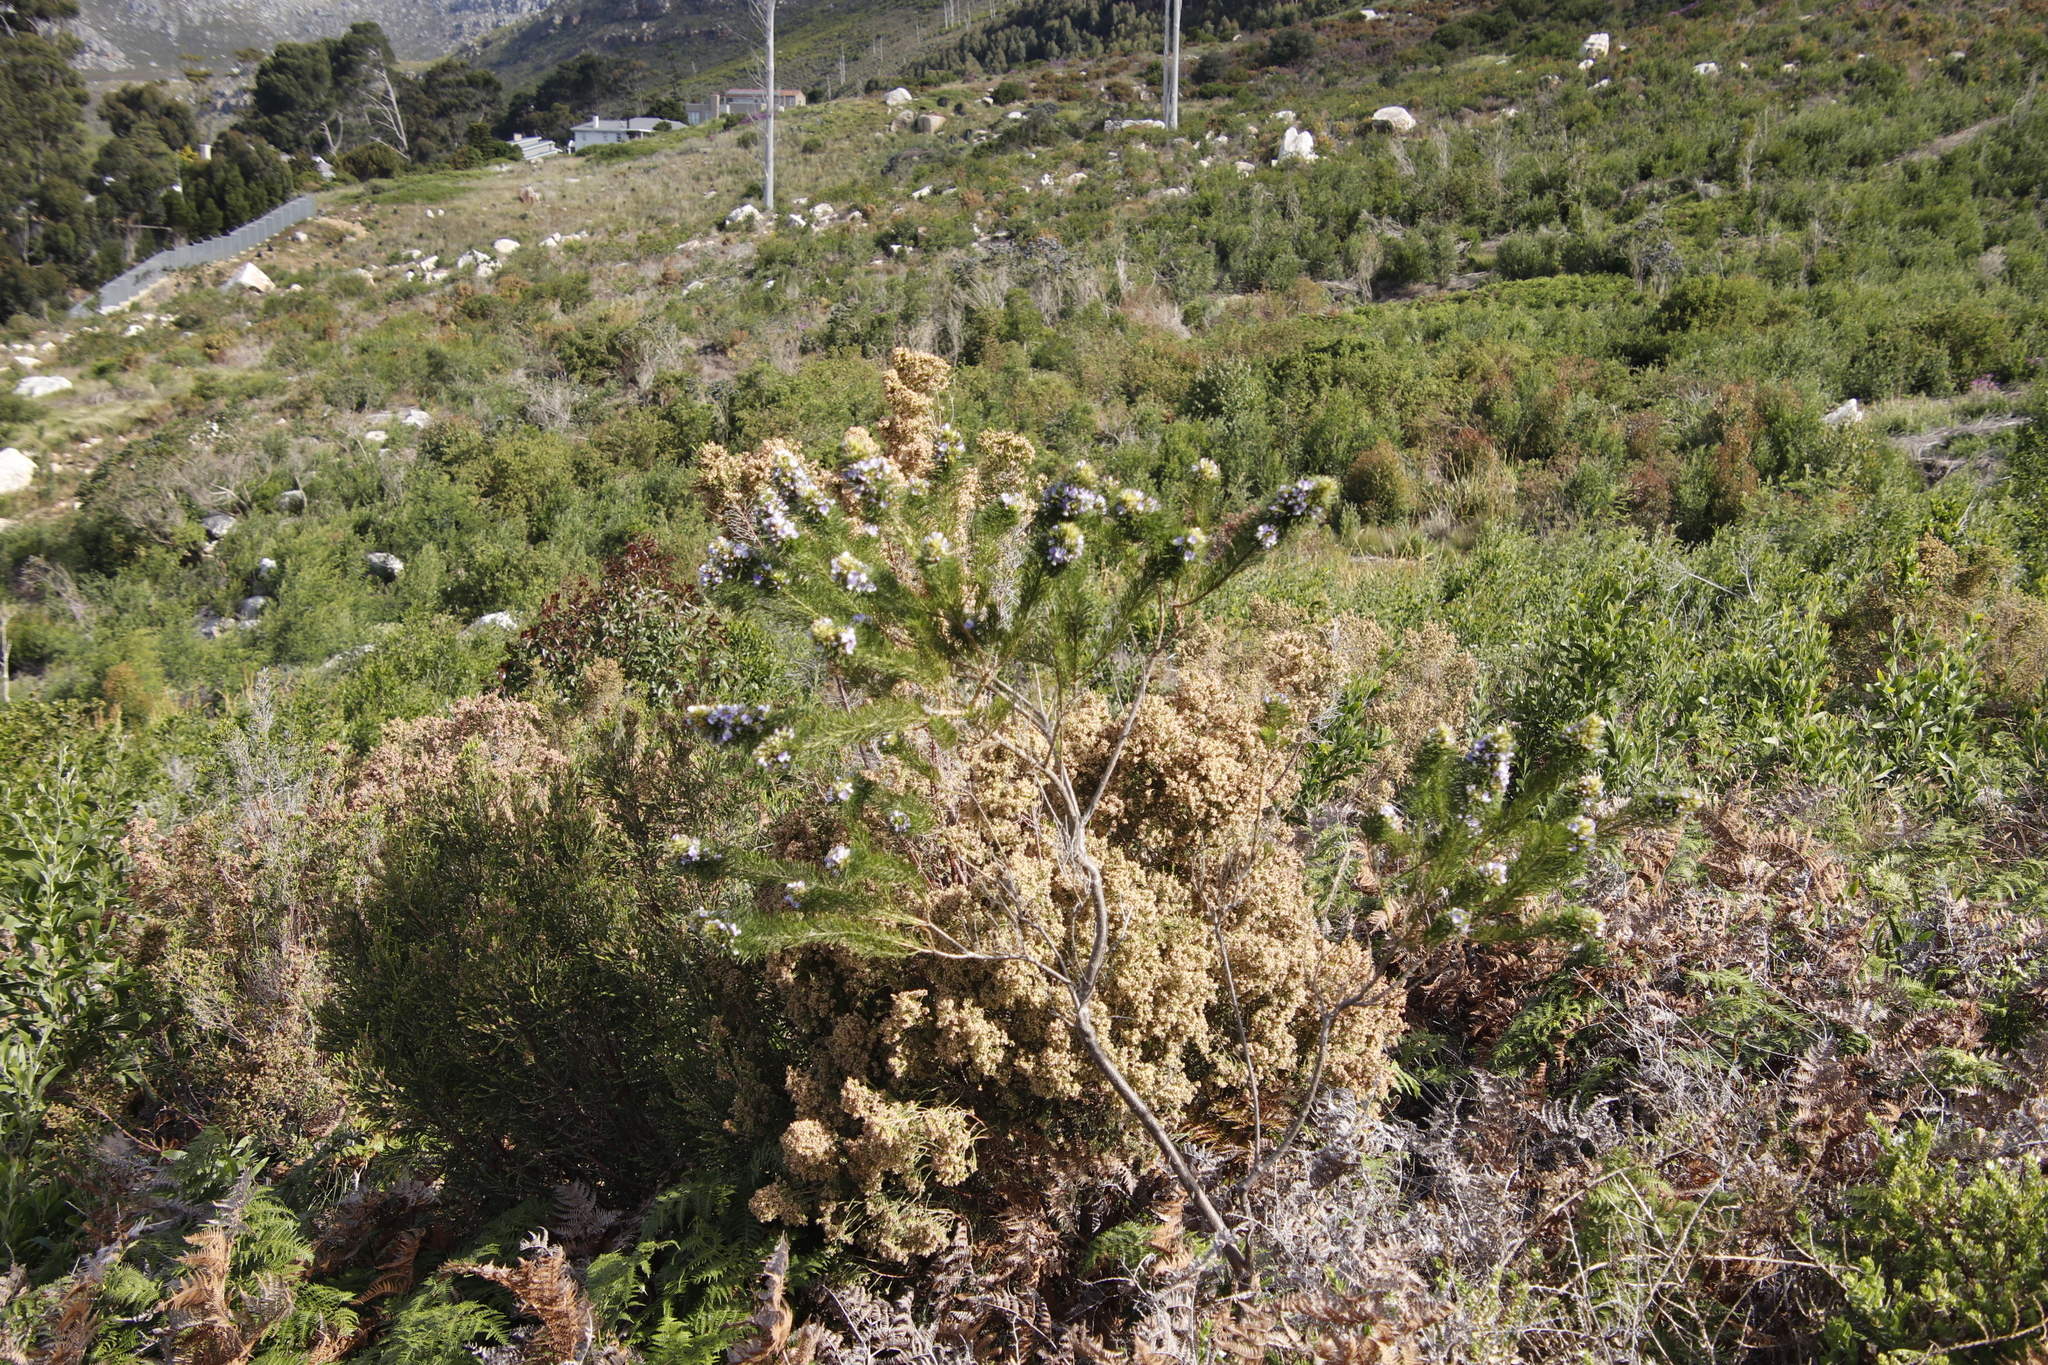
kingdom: Plantae
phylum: Tracheophyta
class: Magnoliopsida
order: Fabales
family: Fabaceae
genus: Psoralea
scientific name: Psoralea pinnata
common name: African scurfpea
